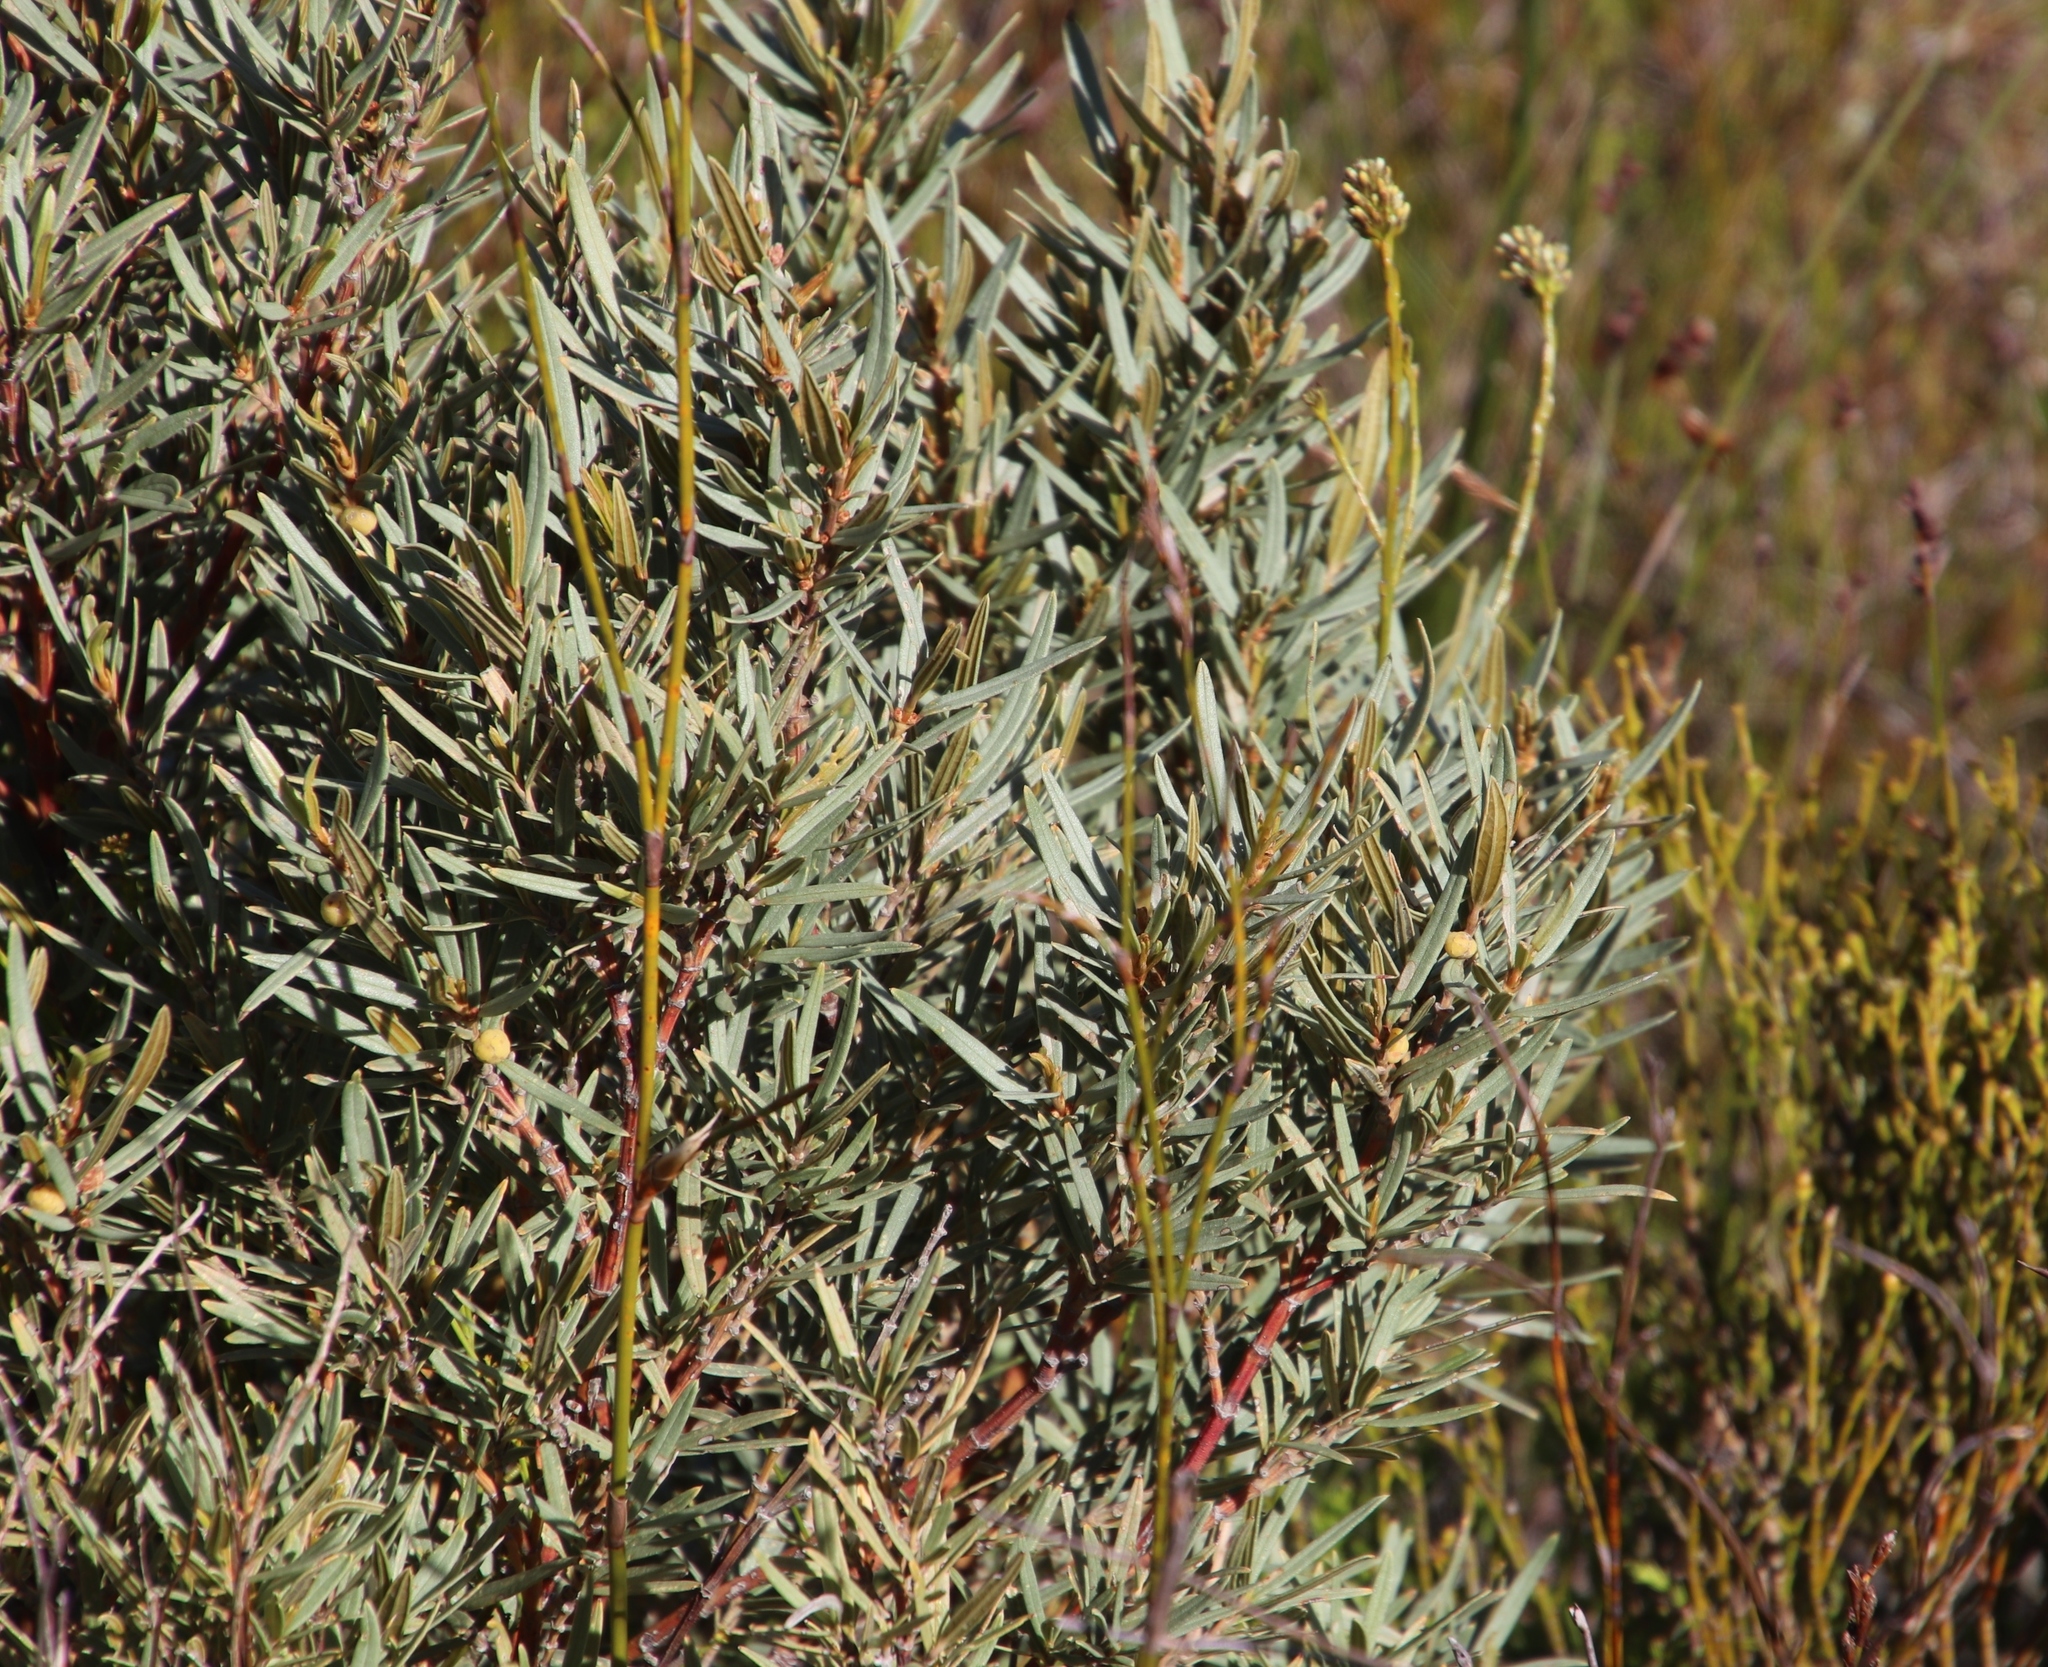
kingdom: Plantae
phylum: Tracheophyta
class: Magnoliopsida
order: Cornales
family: Grubbiaceae
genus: Grubbia
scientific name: Grubbia tomentosa
